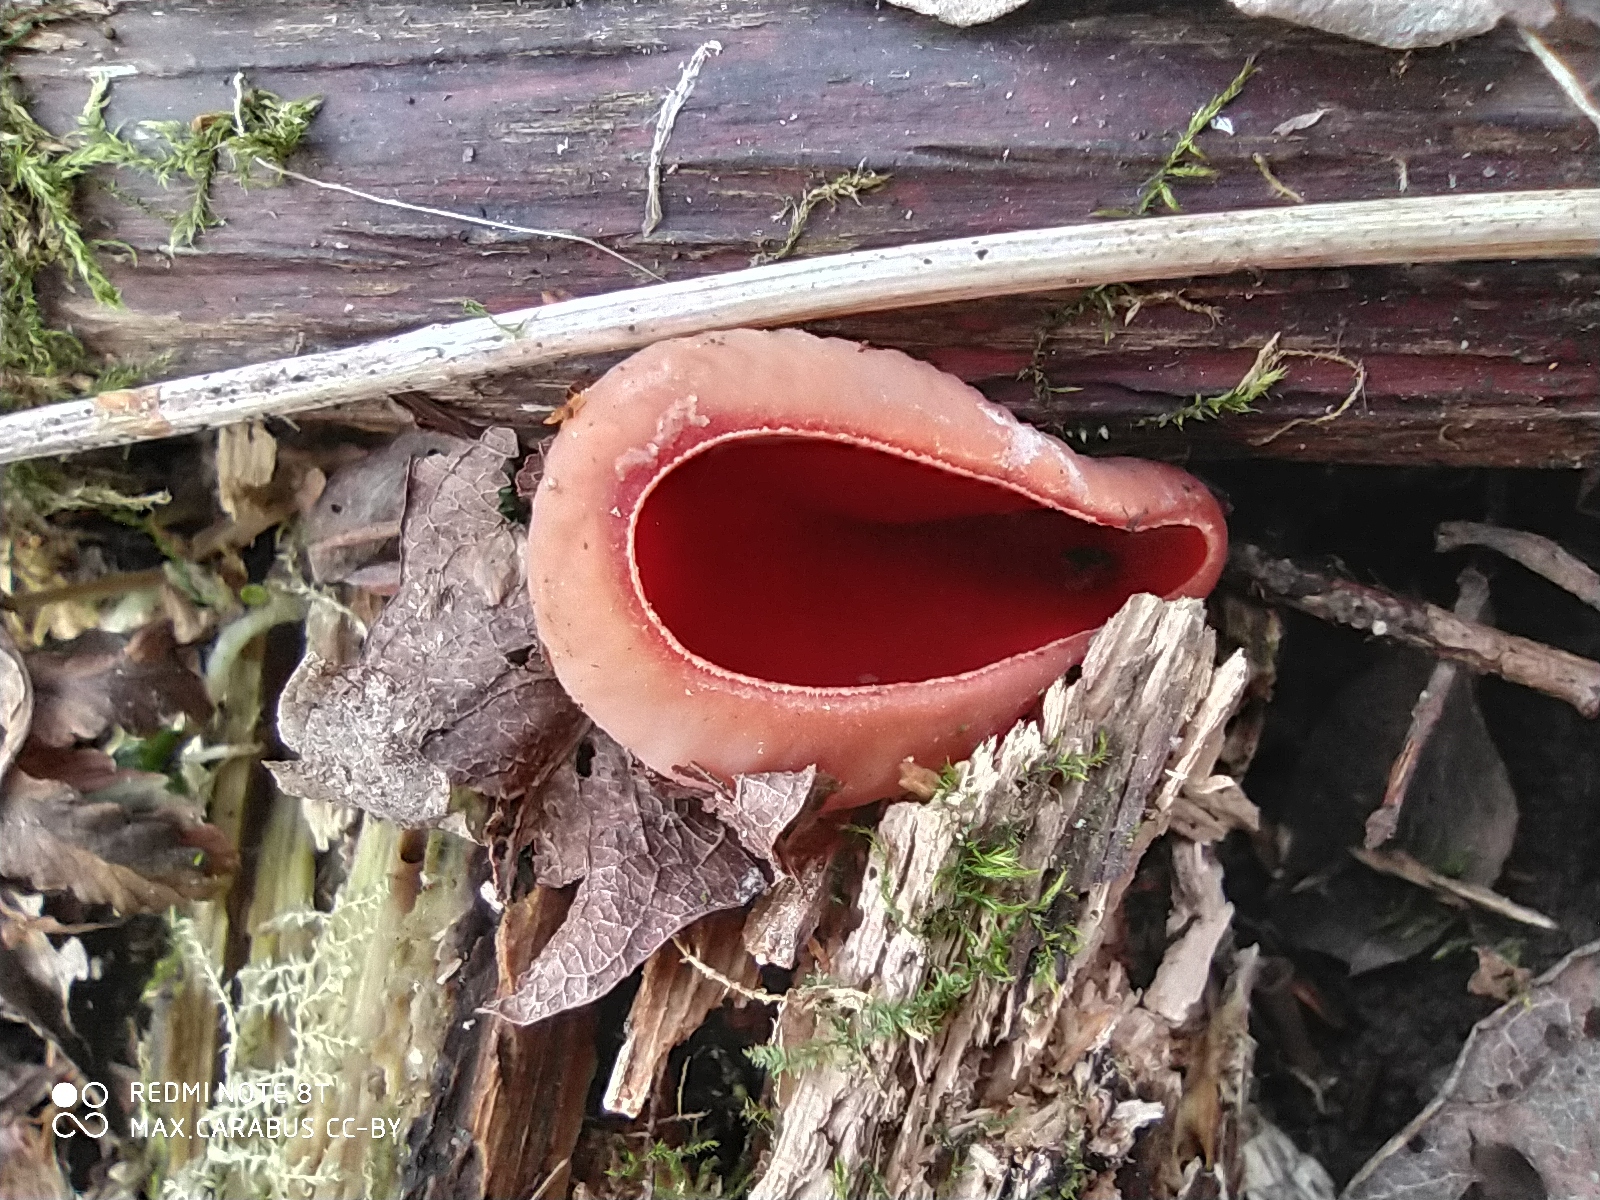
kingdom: Fungi
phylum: Ascomycota
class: Pezizomycetes
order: Pezizales
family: Sarcoscyphaceae
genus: Sarcoscypha
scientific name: Sarcoscypha austriaca
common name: Scarlet elfcup
